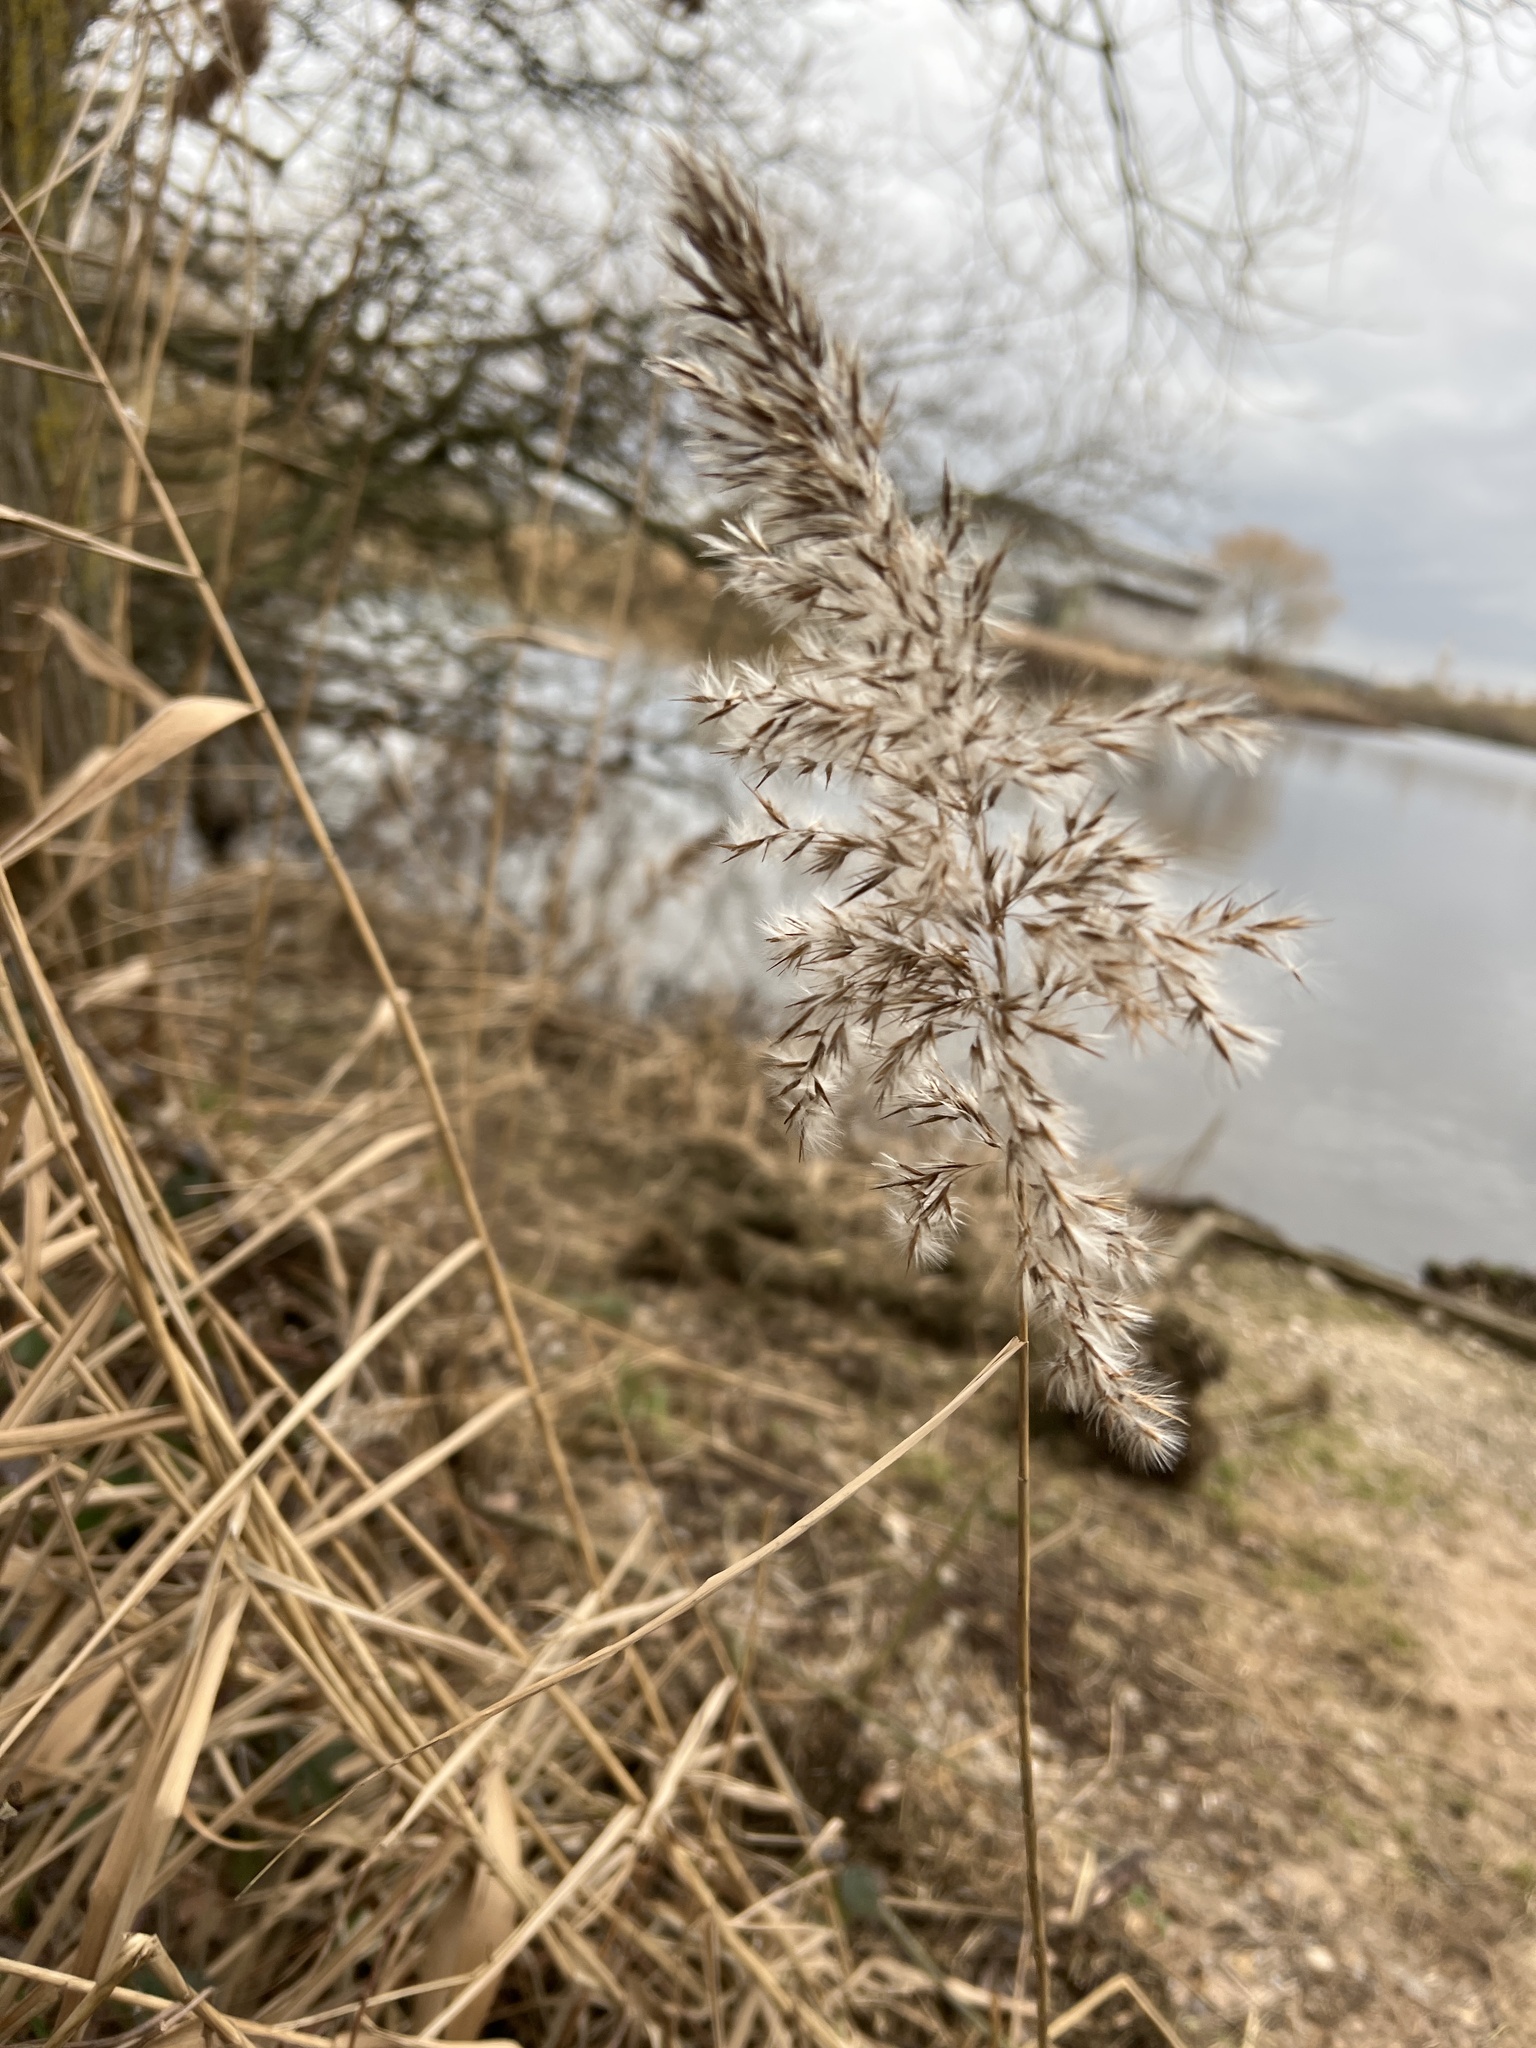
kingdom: Plantae
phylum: Tracheophyta
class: Liliopsida
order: Poales
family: Poaceae
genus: Phragmites
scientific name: Phragmites australis
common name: Common reed
